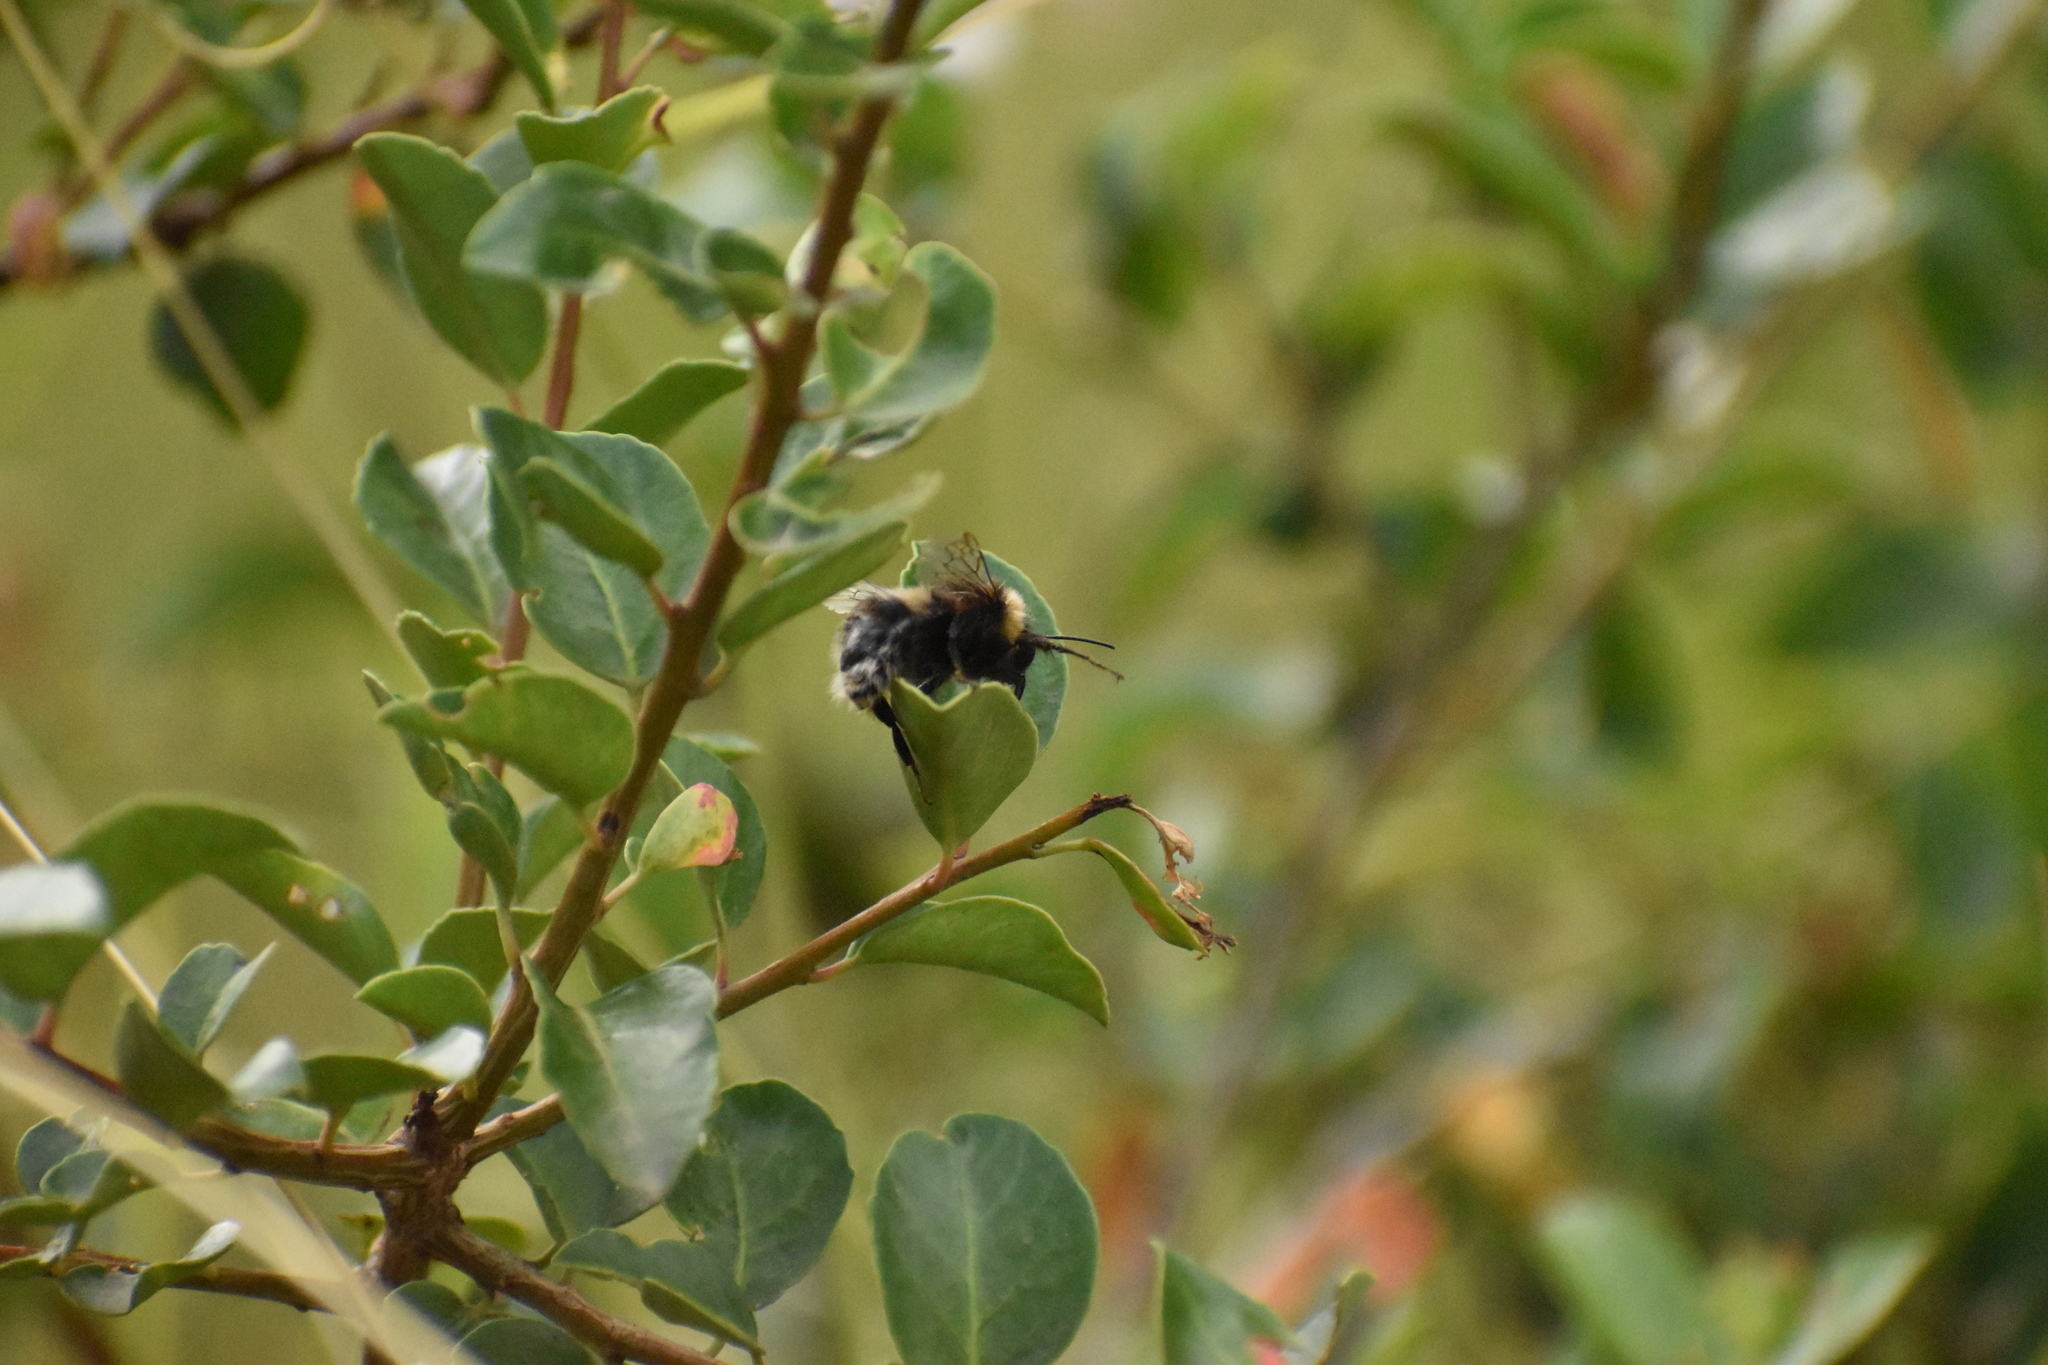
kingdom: Animalia
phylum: Arthropoda
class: Insecta
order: Hymenoptera
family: Apidae
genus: Bombus
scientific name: Bombus terrestris
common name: Buff-tailed bumblebee
